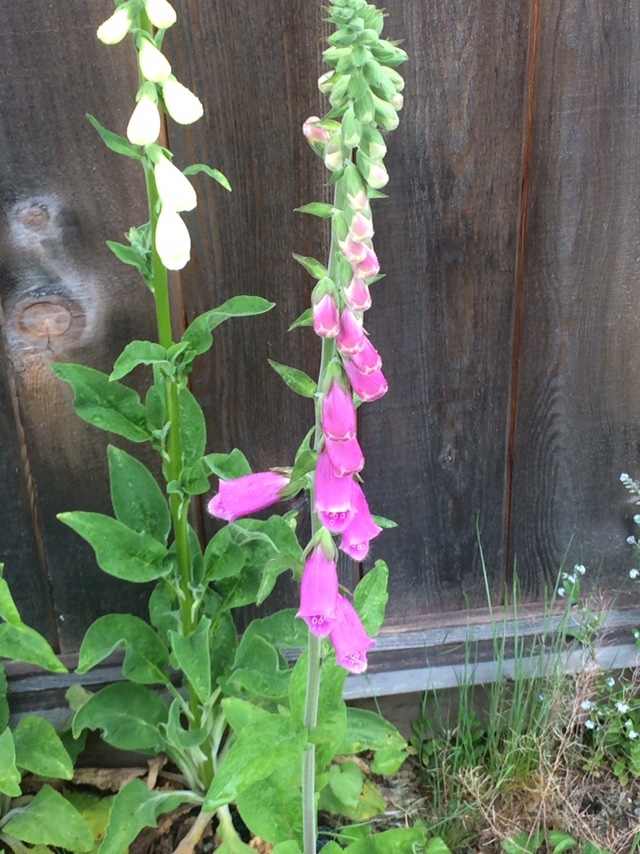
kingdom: Plantae
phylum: Tracheophyta
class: Magnoliopsida
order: Lamiales
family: Plantaginaceae
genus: Digitalis
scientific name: Digitalis purpurea
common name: Foxglove
